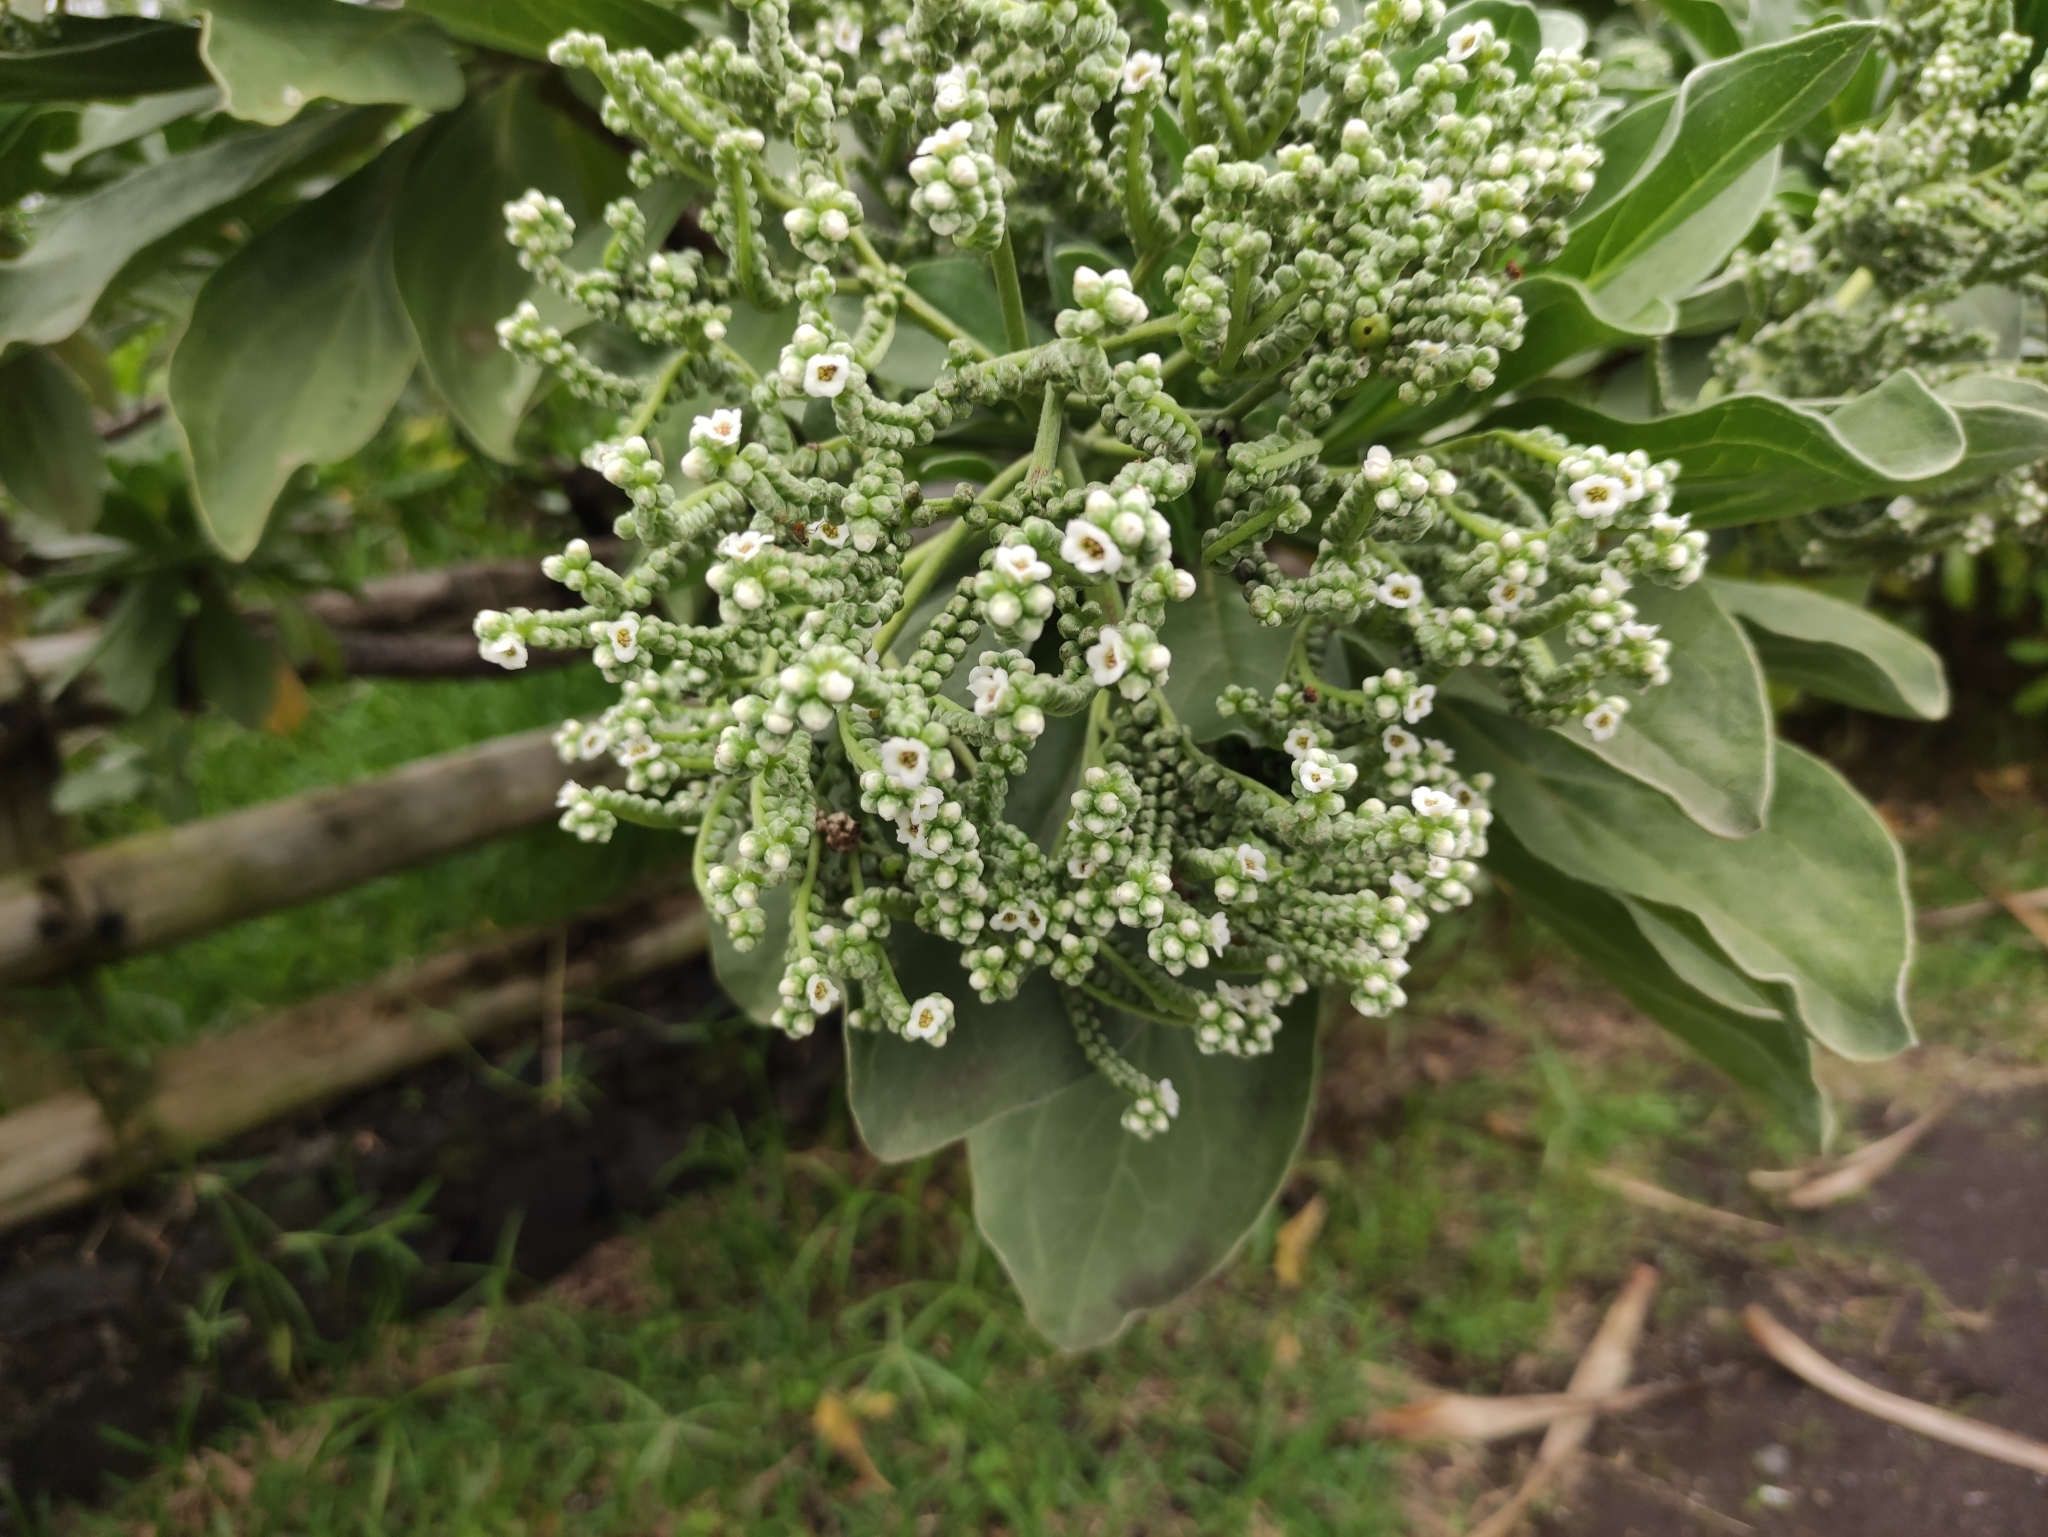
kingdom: Plantae
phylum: Tracheophyta
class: Magnoliopsida
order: Boraginales
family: Heliotropiaceae
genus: Heliotropium
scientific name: Heliotropium velutinum
